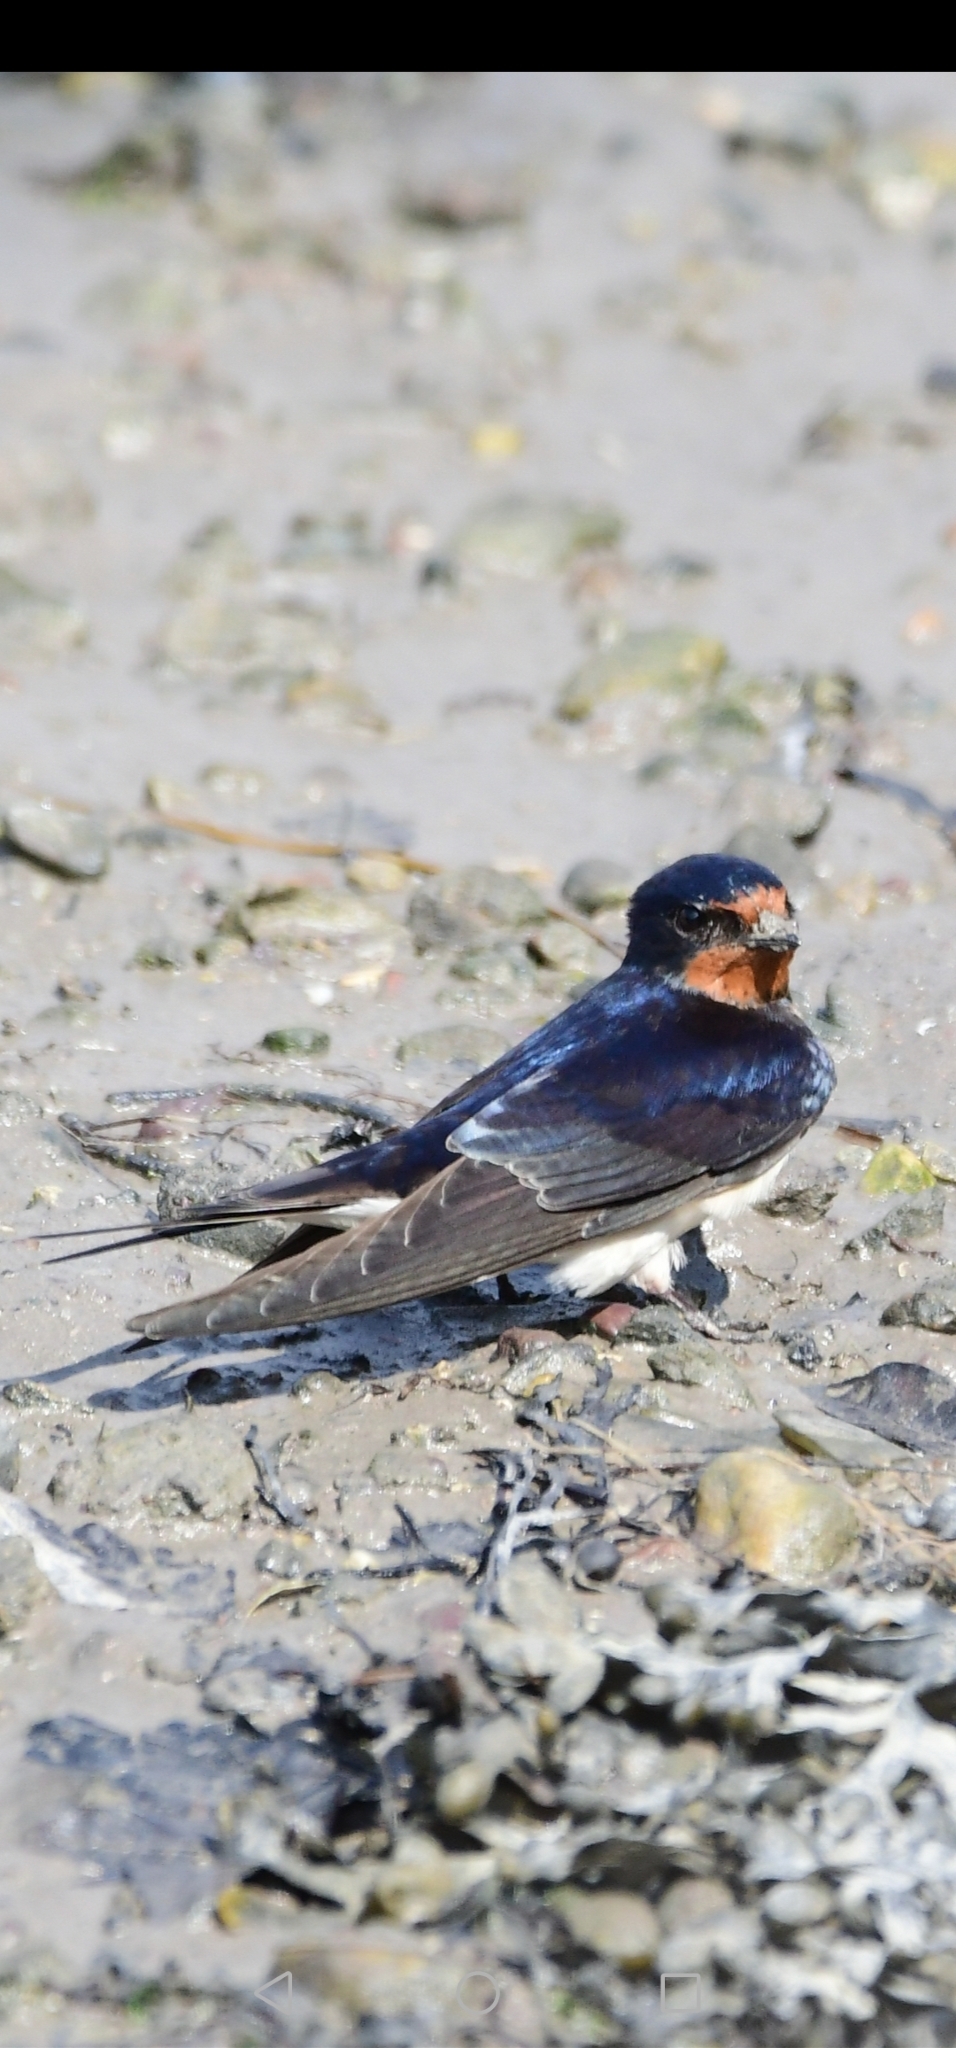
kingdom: Animalia
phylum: Chordata
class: Aves
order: Passeriformes
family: Hirundinidae
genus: Hirundo
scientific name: Hirundo rustica
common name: Barn swallow
